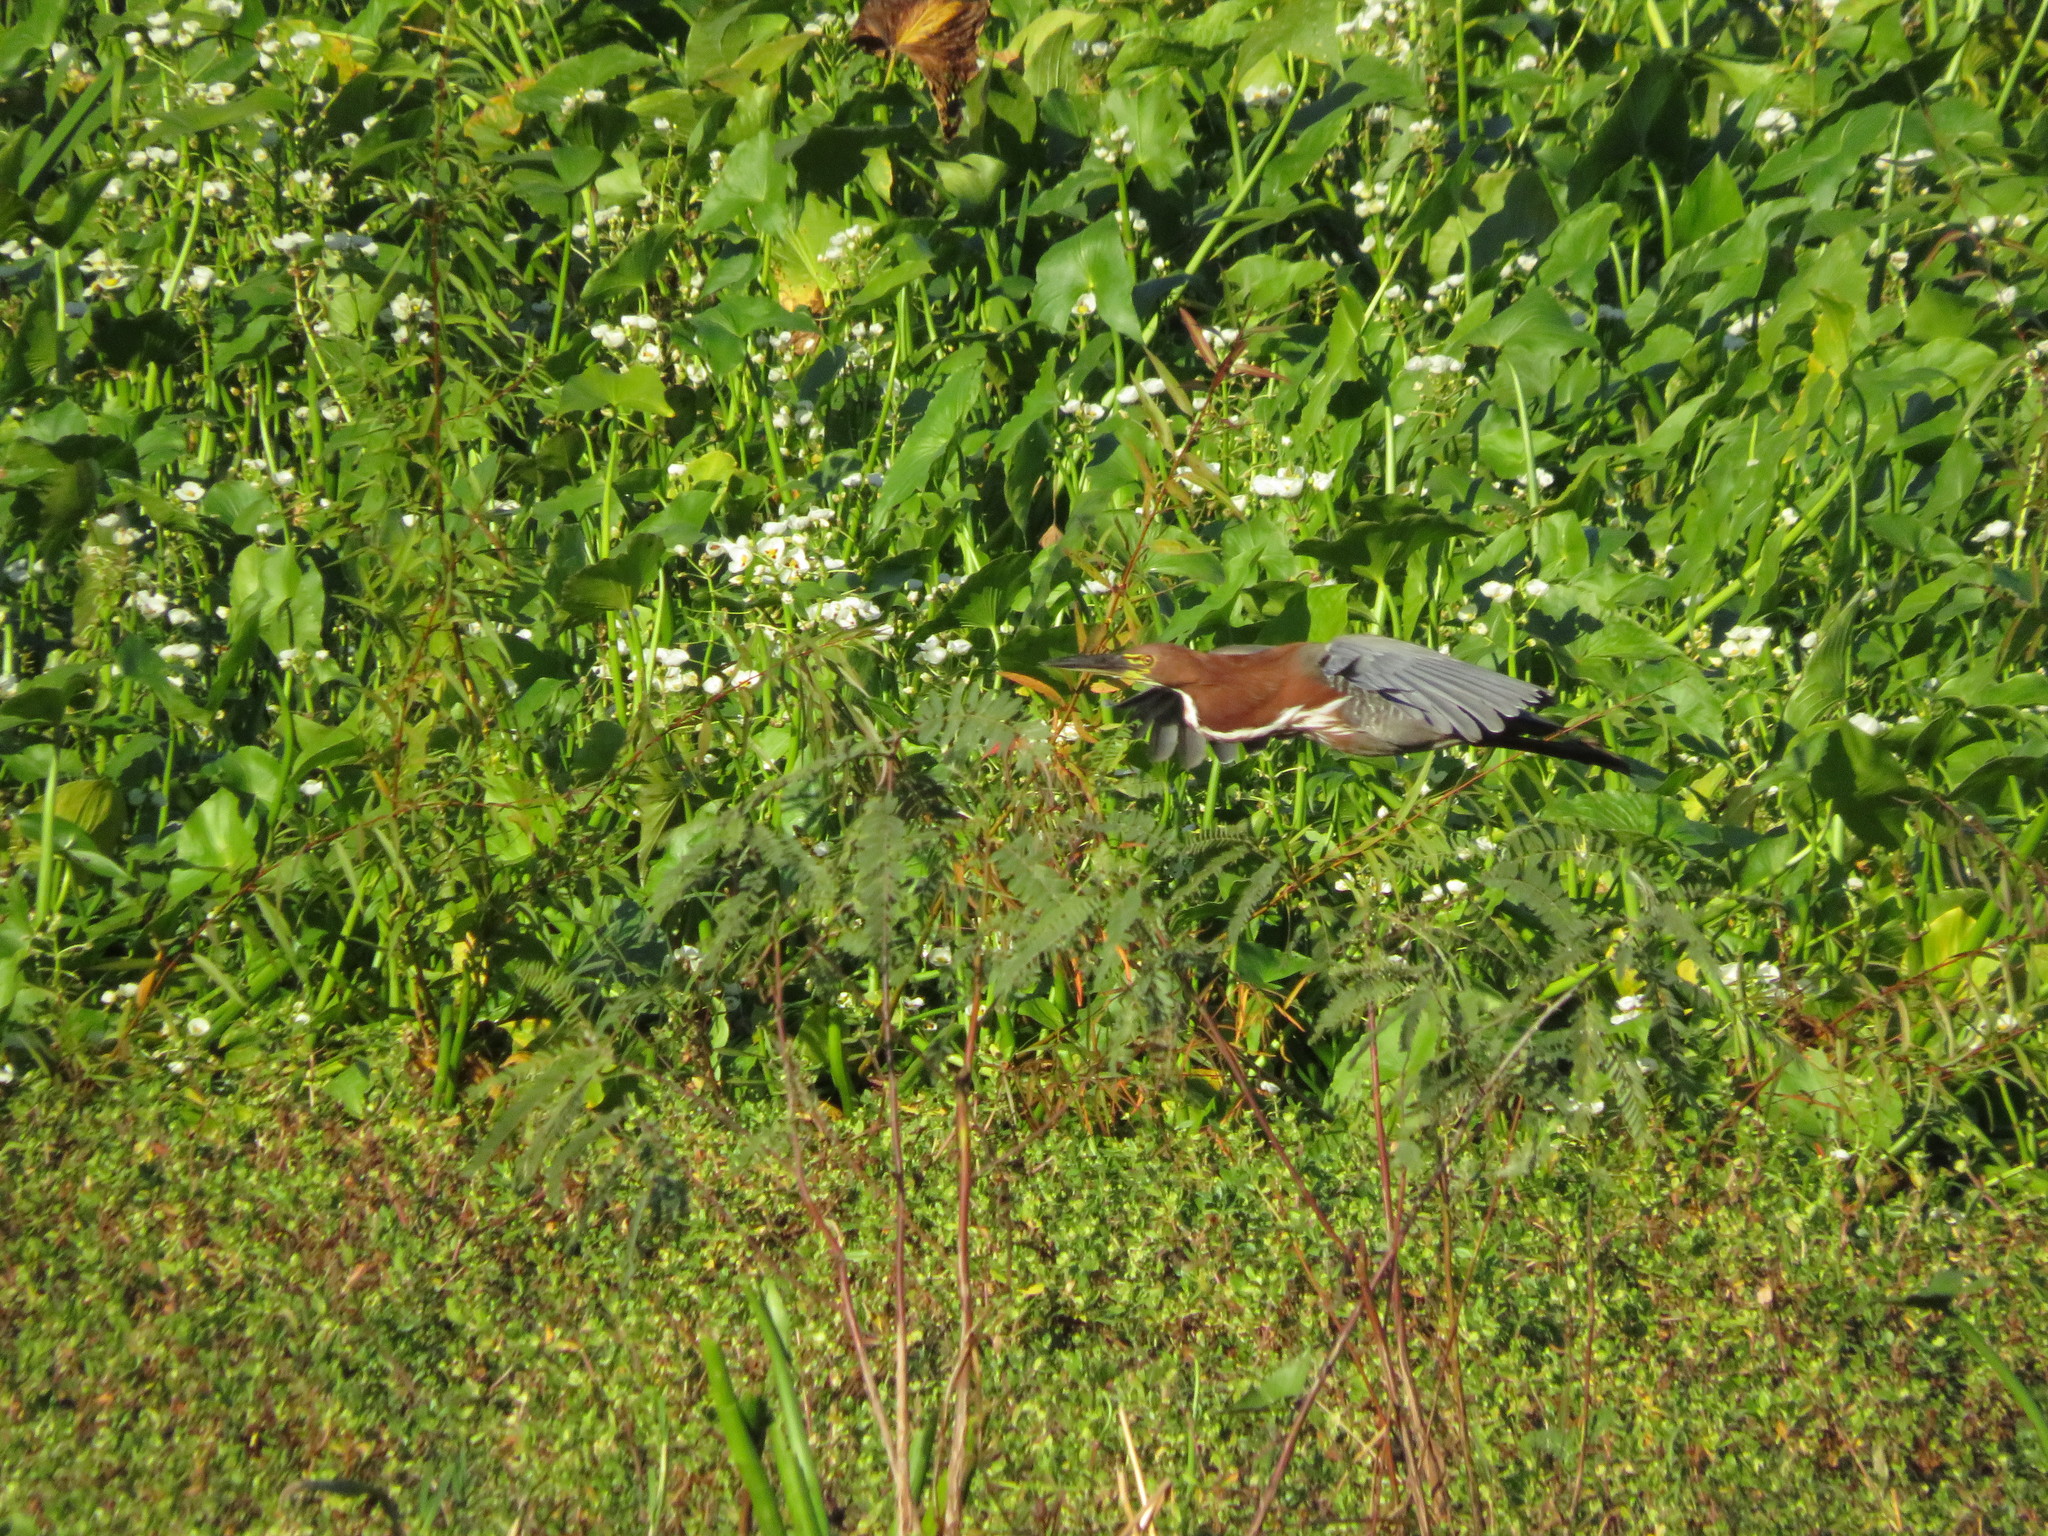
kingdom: Animalia
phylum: Chordata
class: Aves
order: Pelecaniformes
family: Ardeidae
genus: Tigrisoma
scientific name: Tigrisoma lineatum
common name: Rufescent tiger-heron
